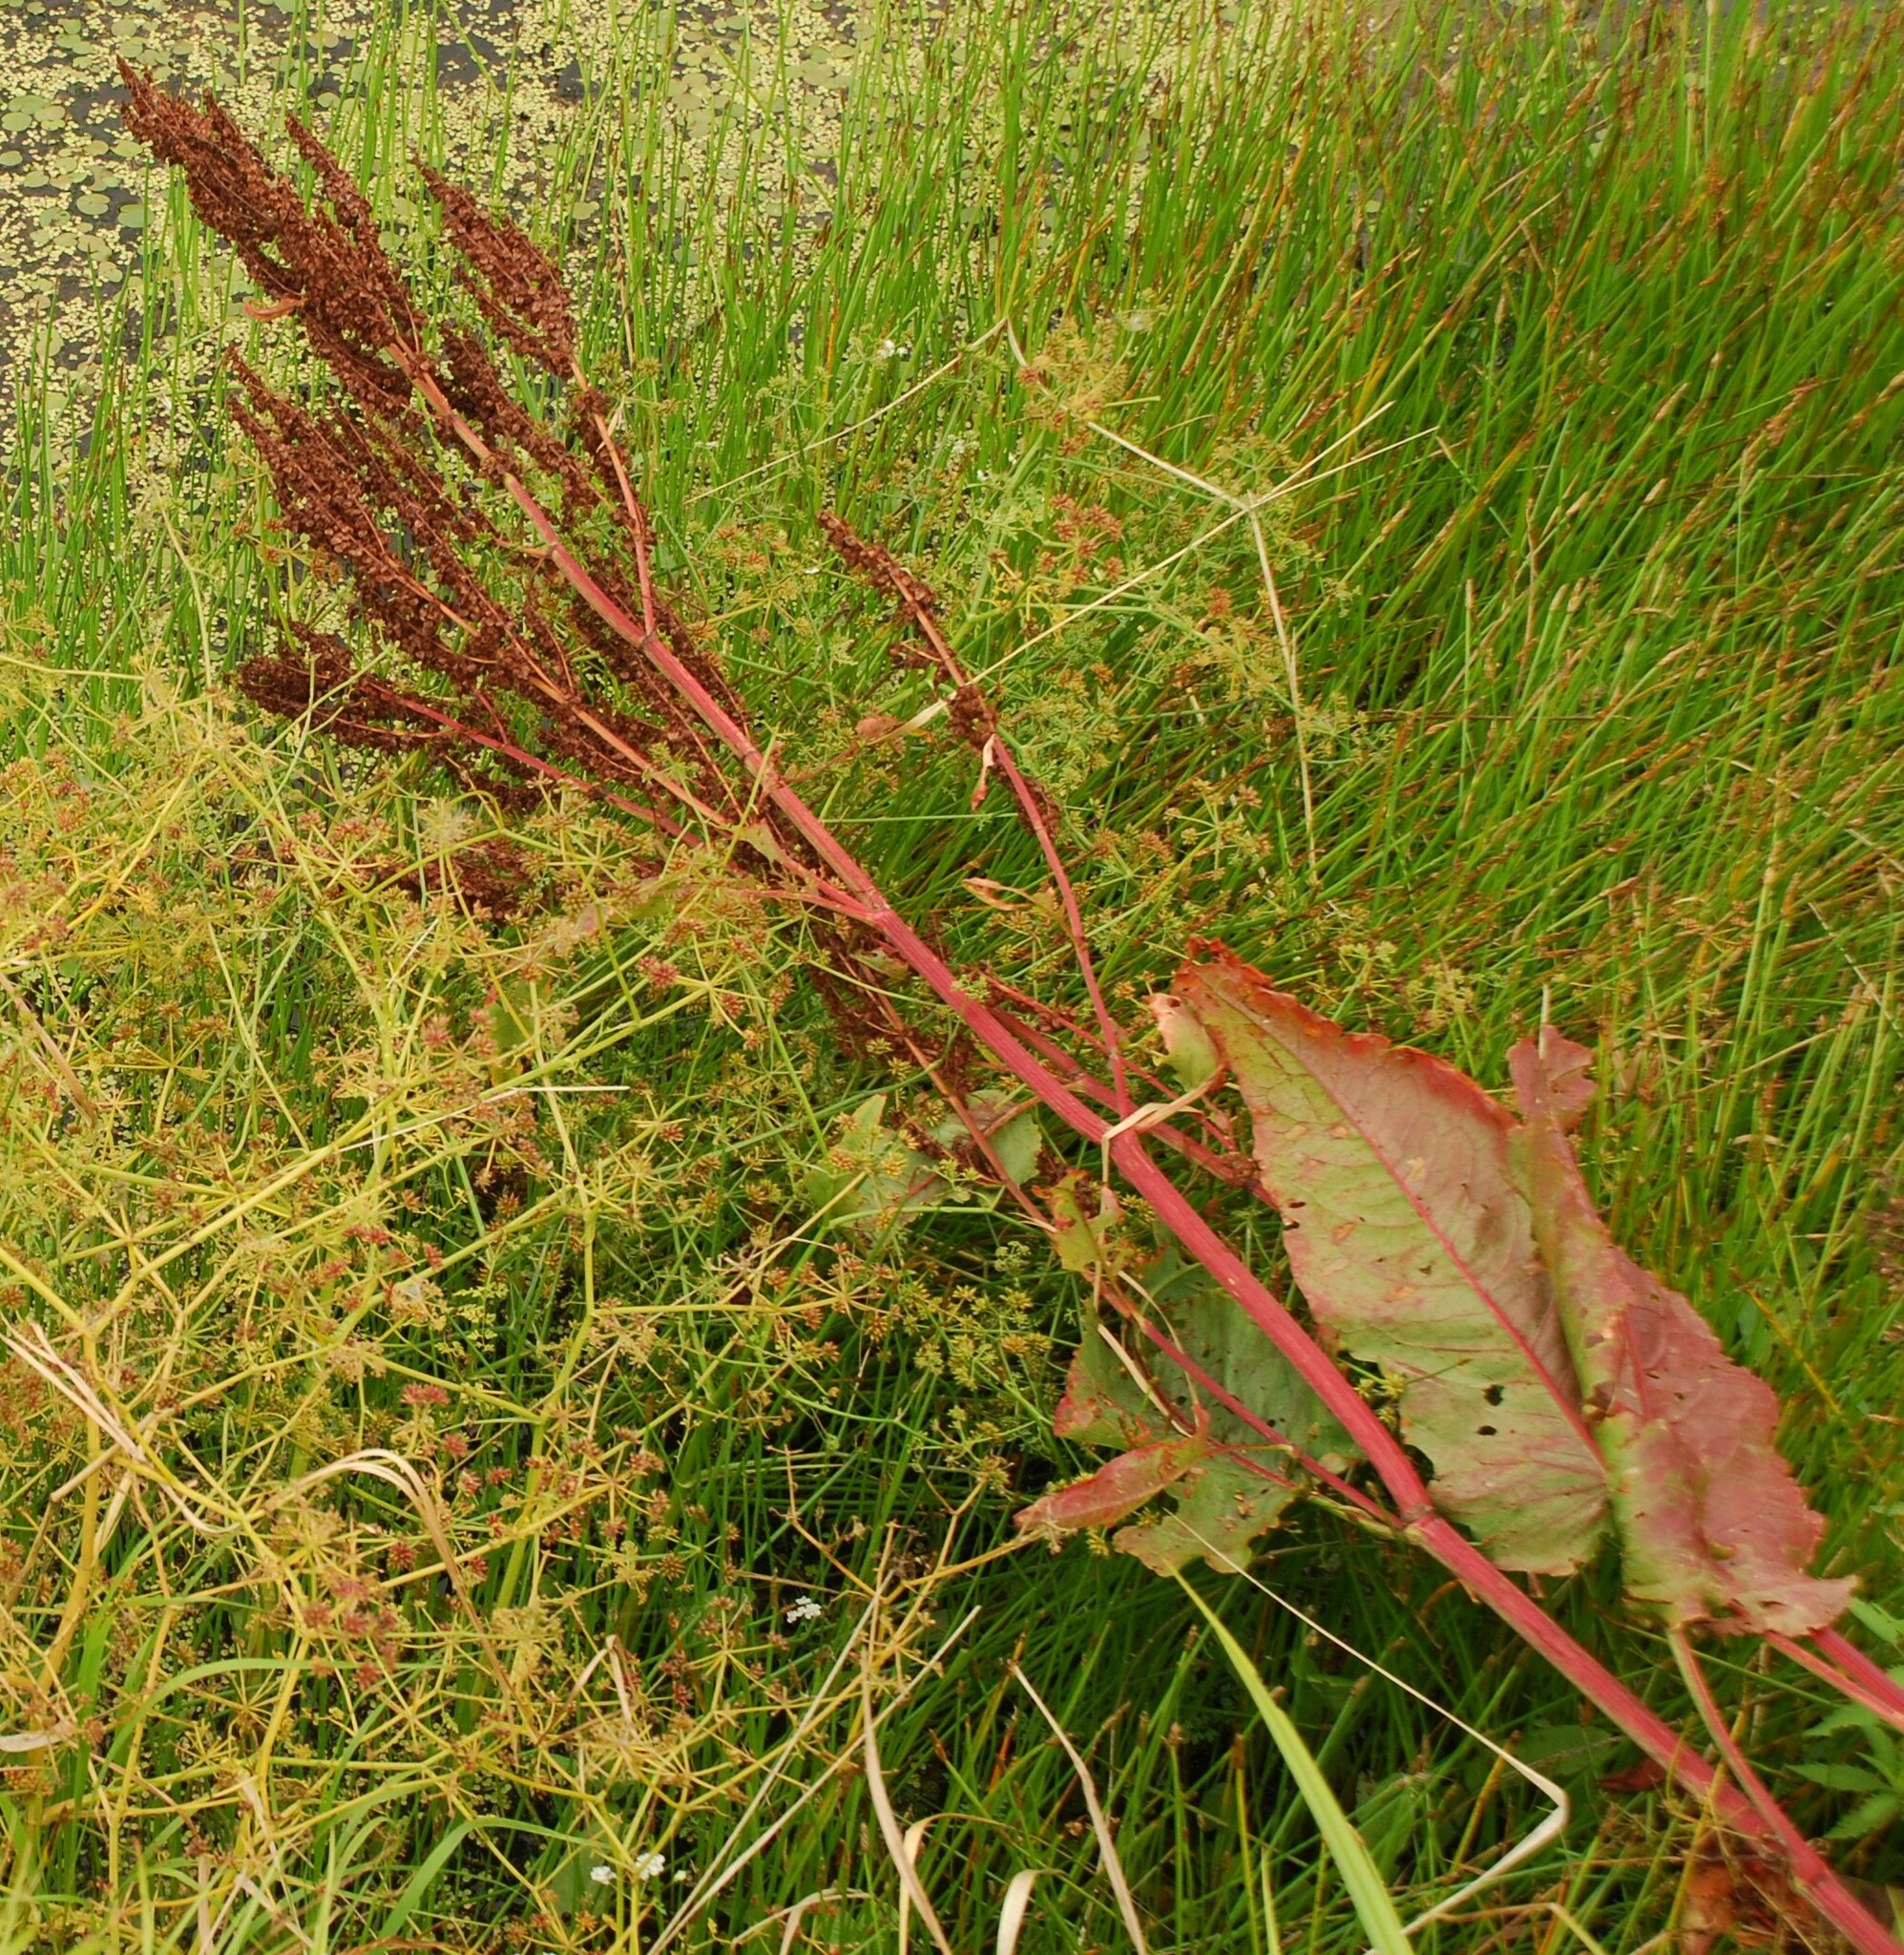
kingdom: Plantae
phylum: Tracheophyta
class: Magnoliopsida
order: Caryophyllales
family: Polygonaceae
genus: Rumex
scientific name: Rumex aquaticus
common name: Scottish dock
